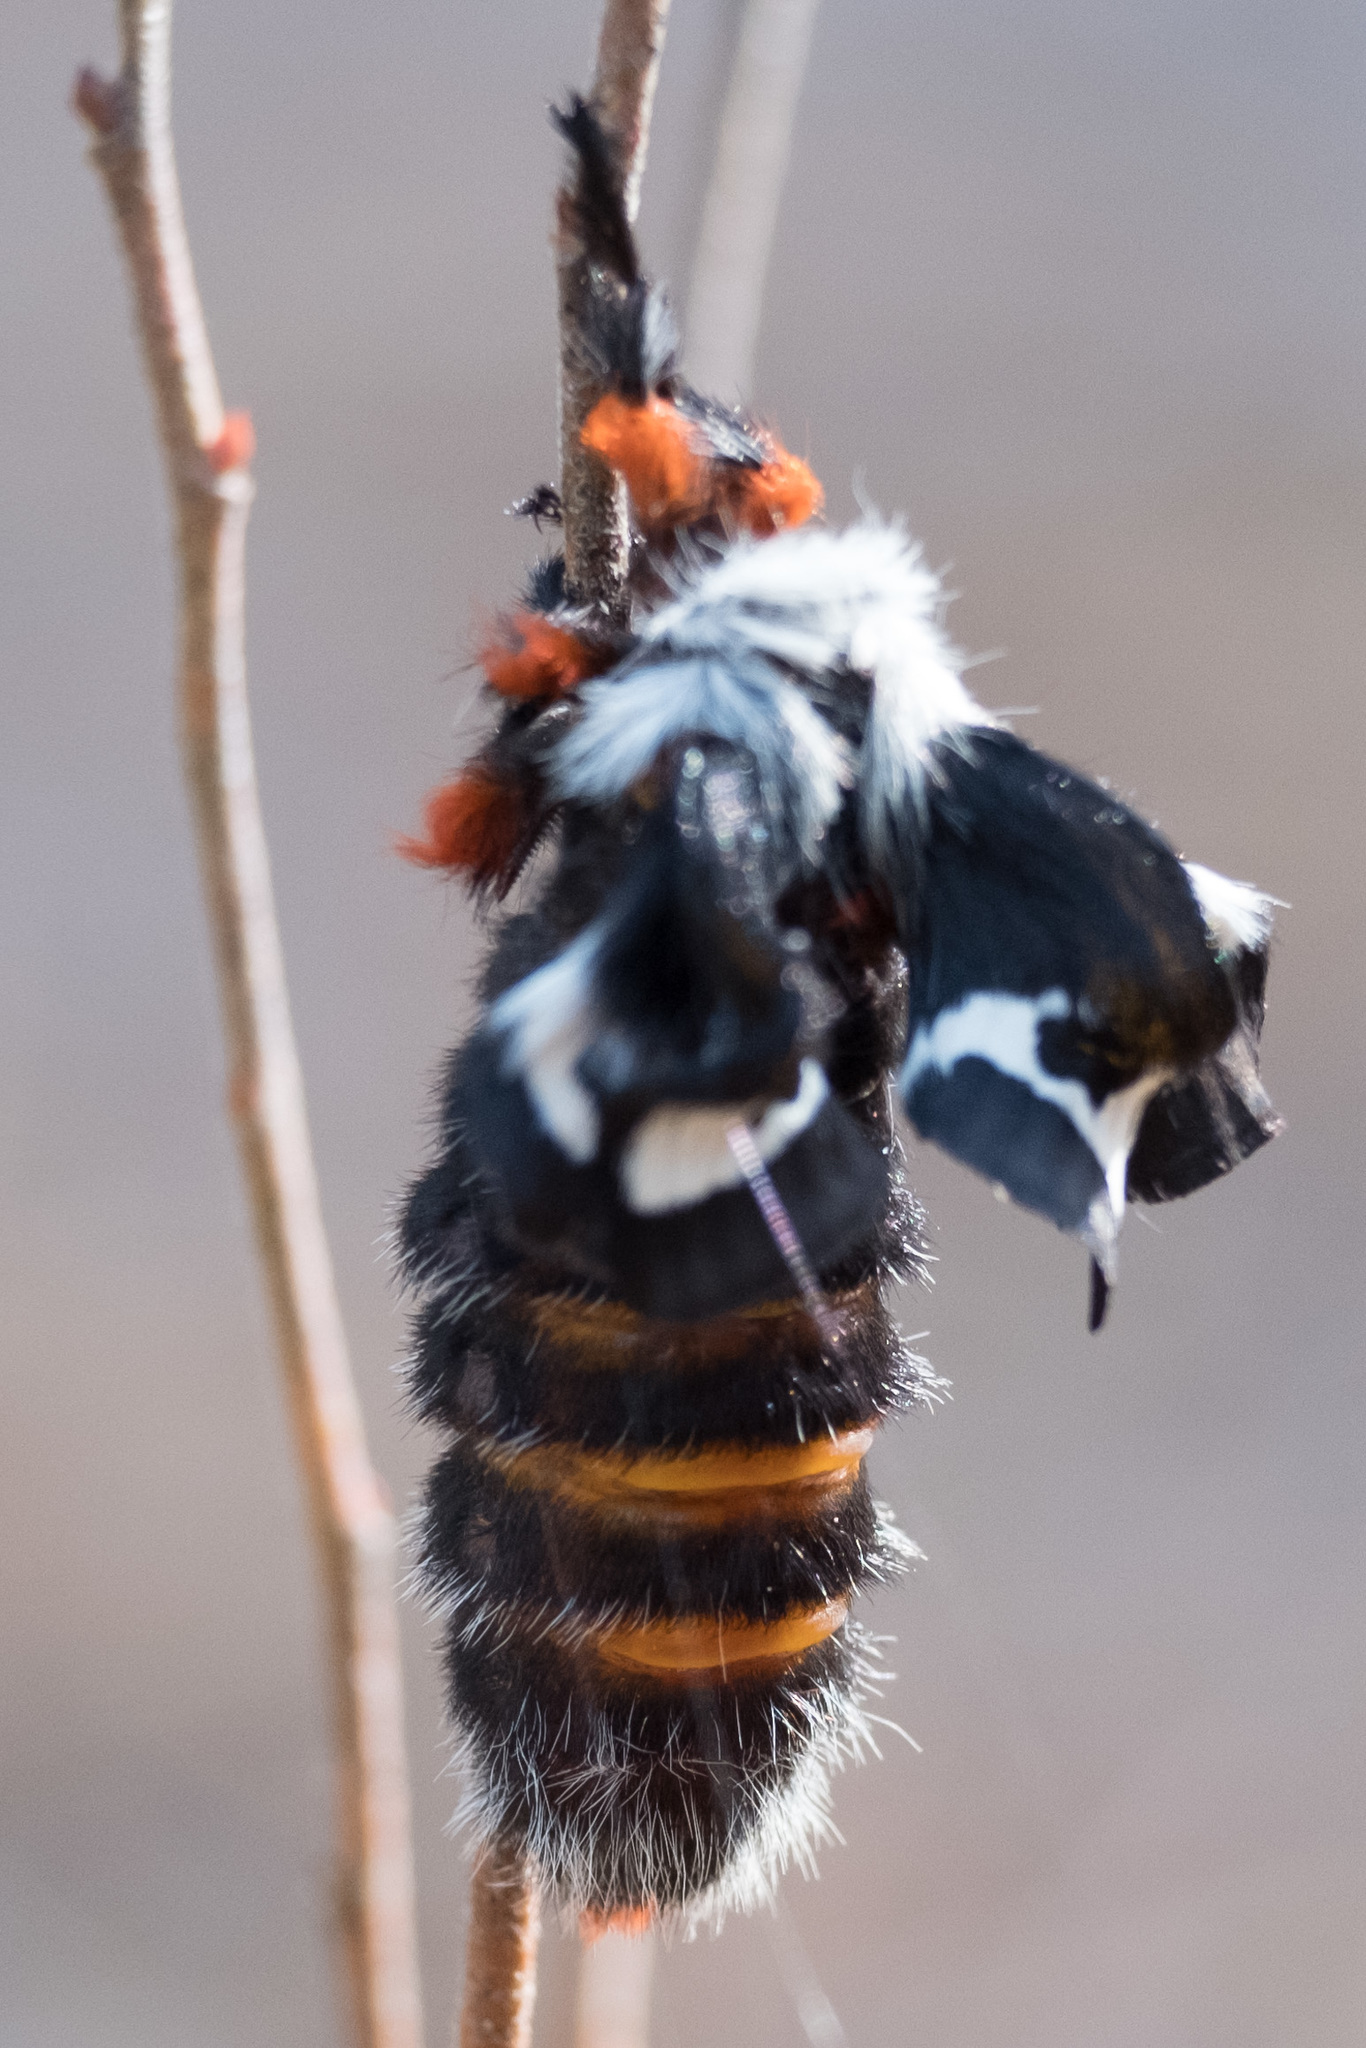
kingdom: Animalia
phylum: Arthropoda
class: Insecta
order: Lepidoptera
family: Saturniidae
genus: Hemileuca
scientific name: Hemileuca maia
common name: Eastern buckmoth
